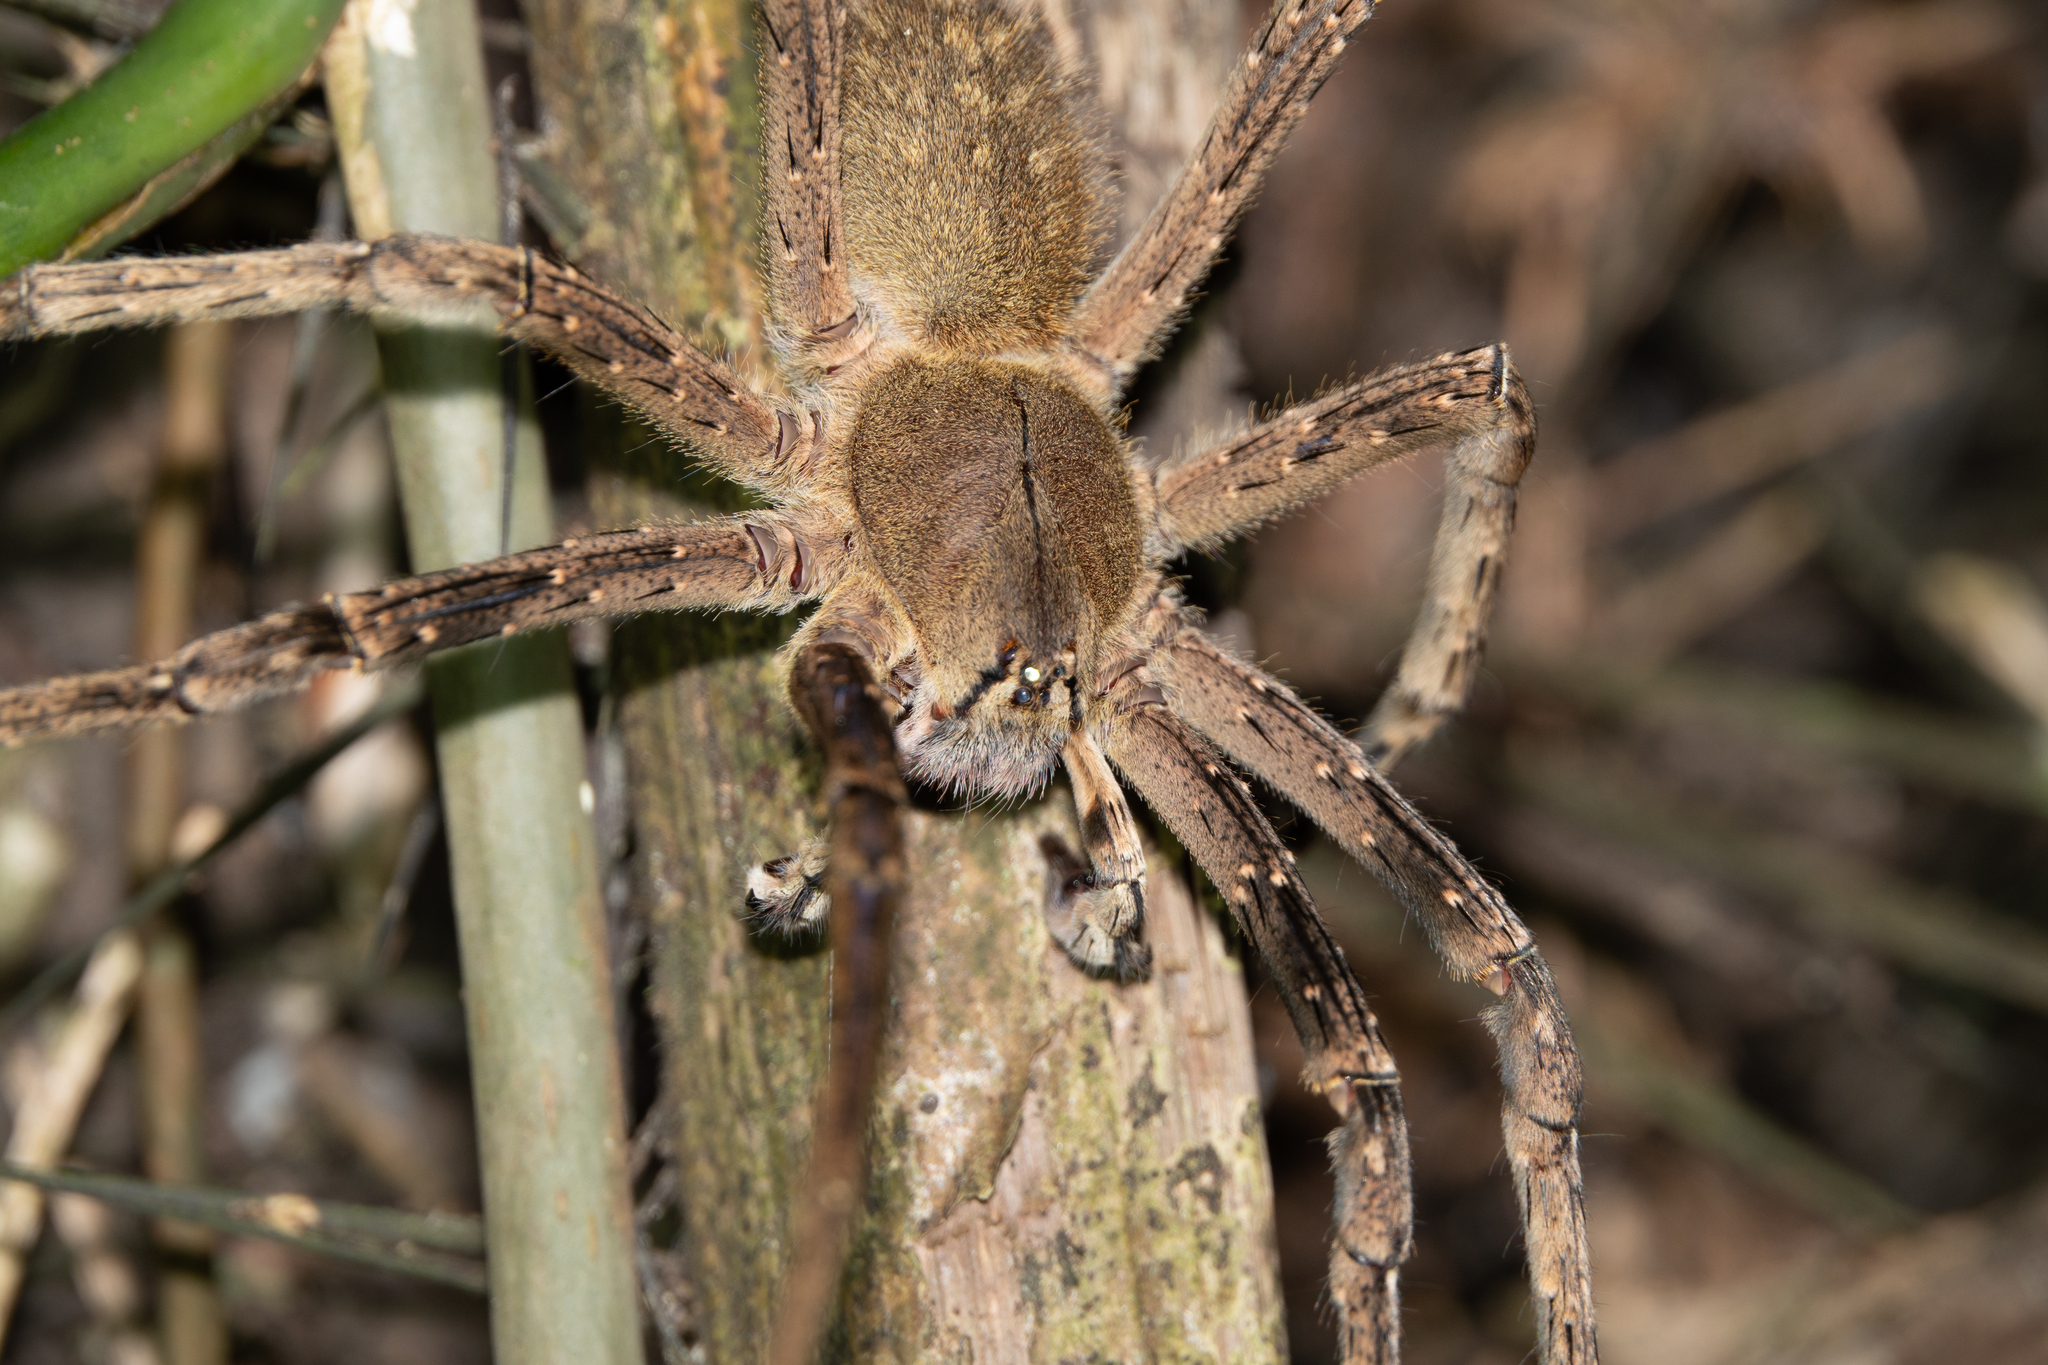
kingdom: Animalia
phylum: Arthropoda
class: Arachnida
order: Araneae
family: Ctenidae
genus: Phoneutria
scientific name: Phoneutria fera
